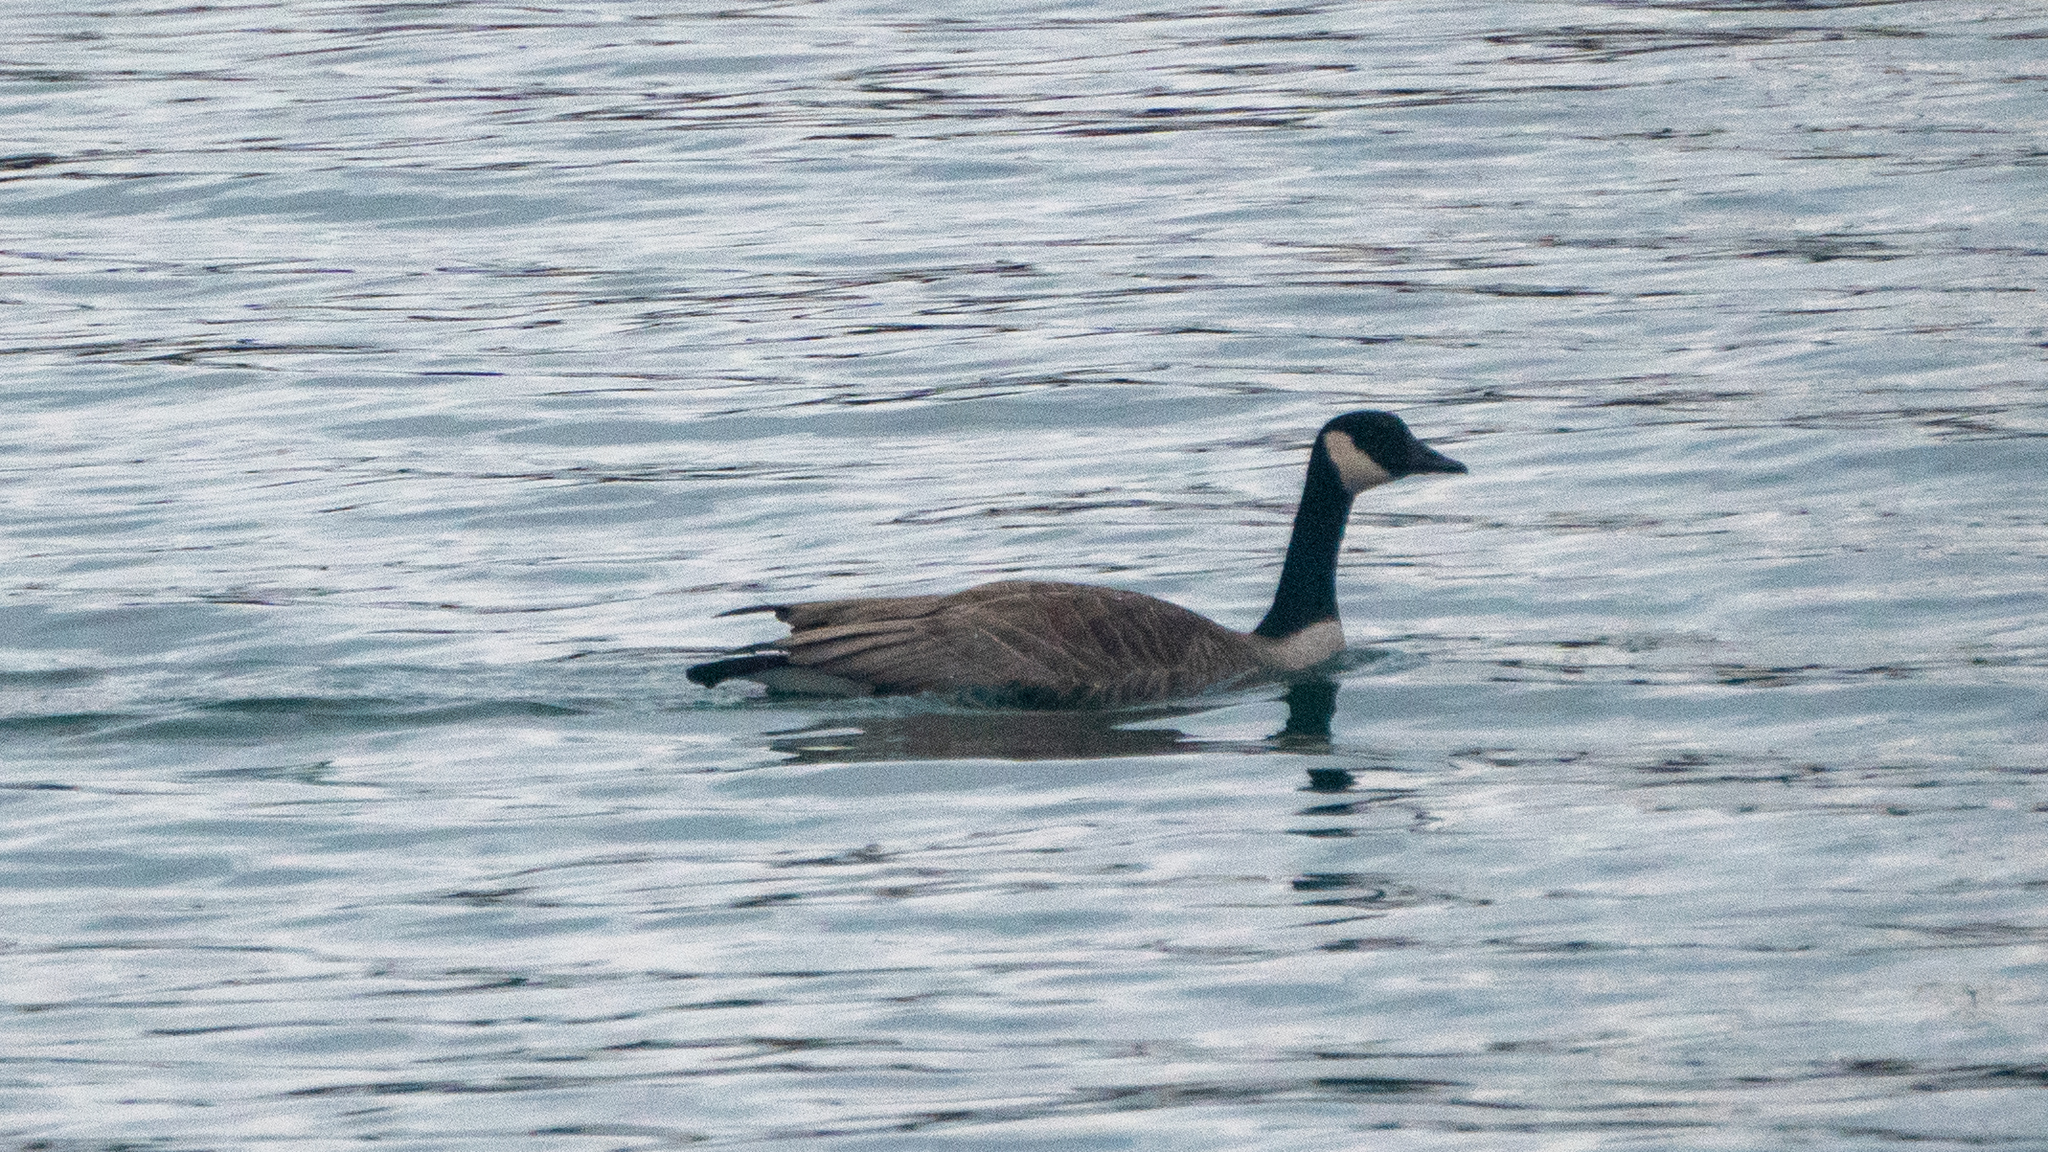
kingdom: Animalia
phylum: Chordata
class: Aves
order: Anseriformes
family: Anatidae
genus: Branta
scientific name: Branta canadensis
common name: Canada goose
